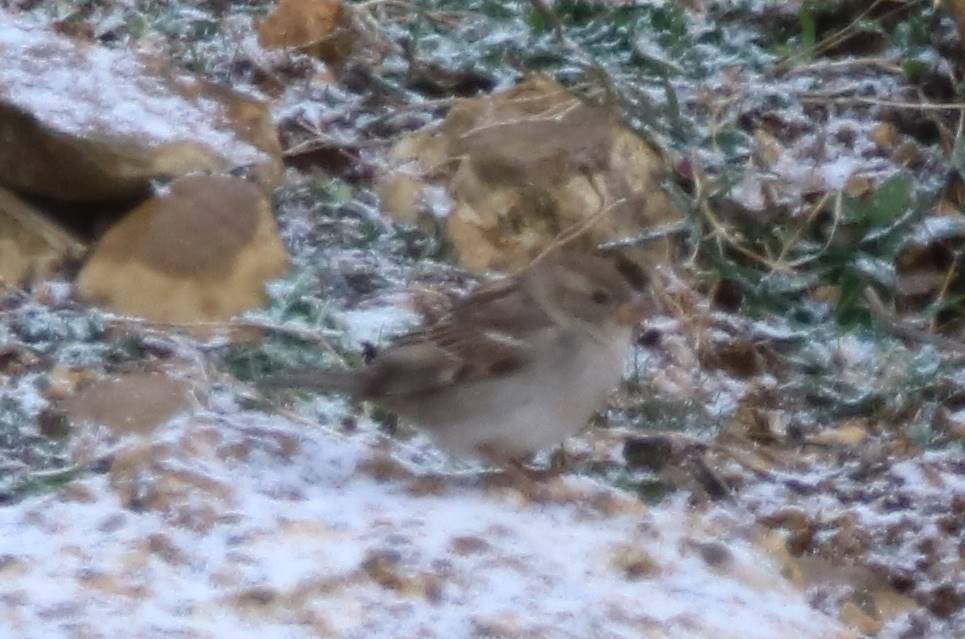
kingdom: Animalia
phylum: Chordata
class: Aves
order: Passeriformes
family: Passeridae
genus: Passer
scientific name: Passer hispaniolensis
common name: Spanish sparrow
